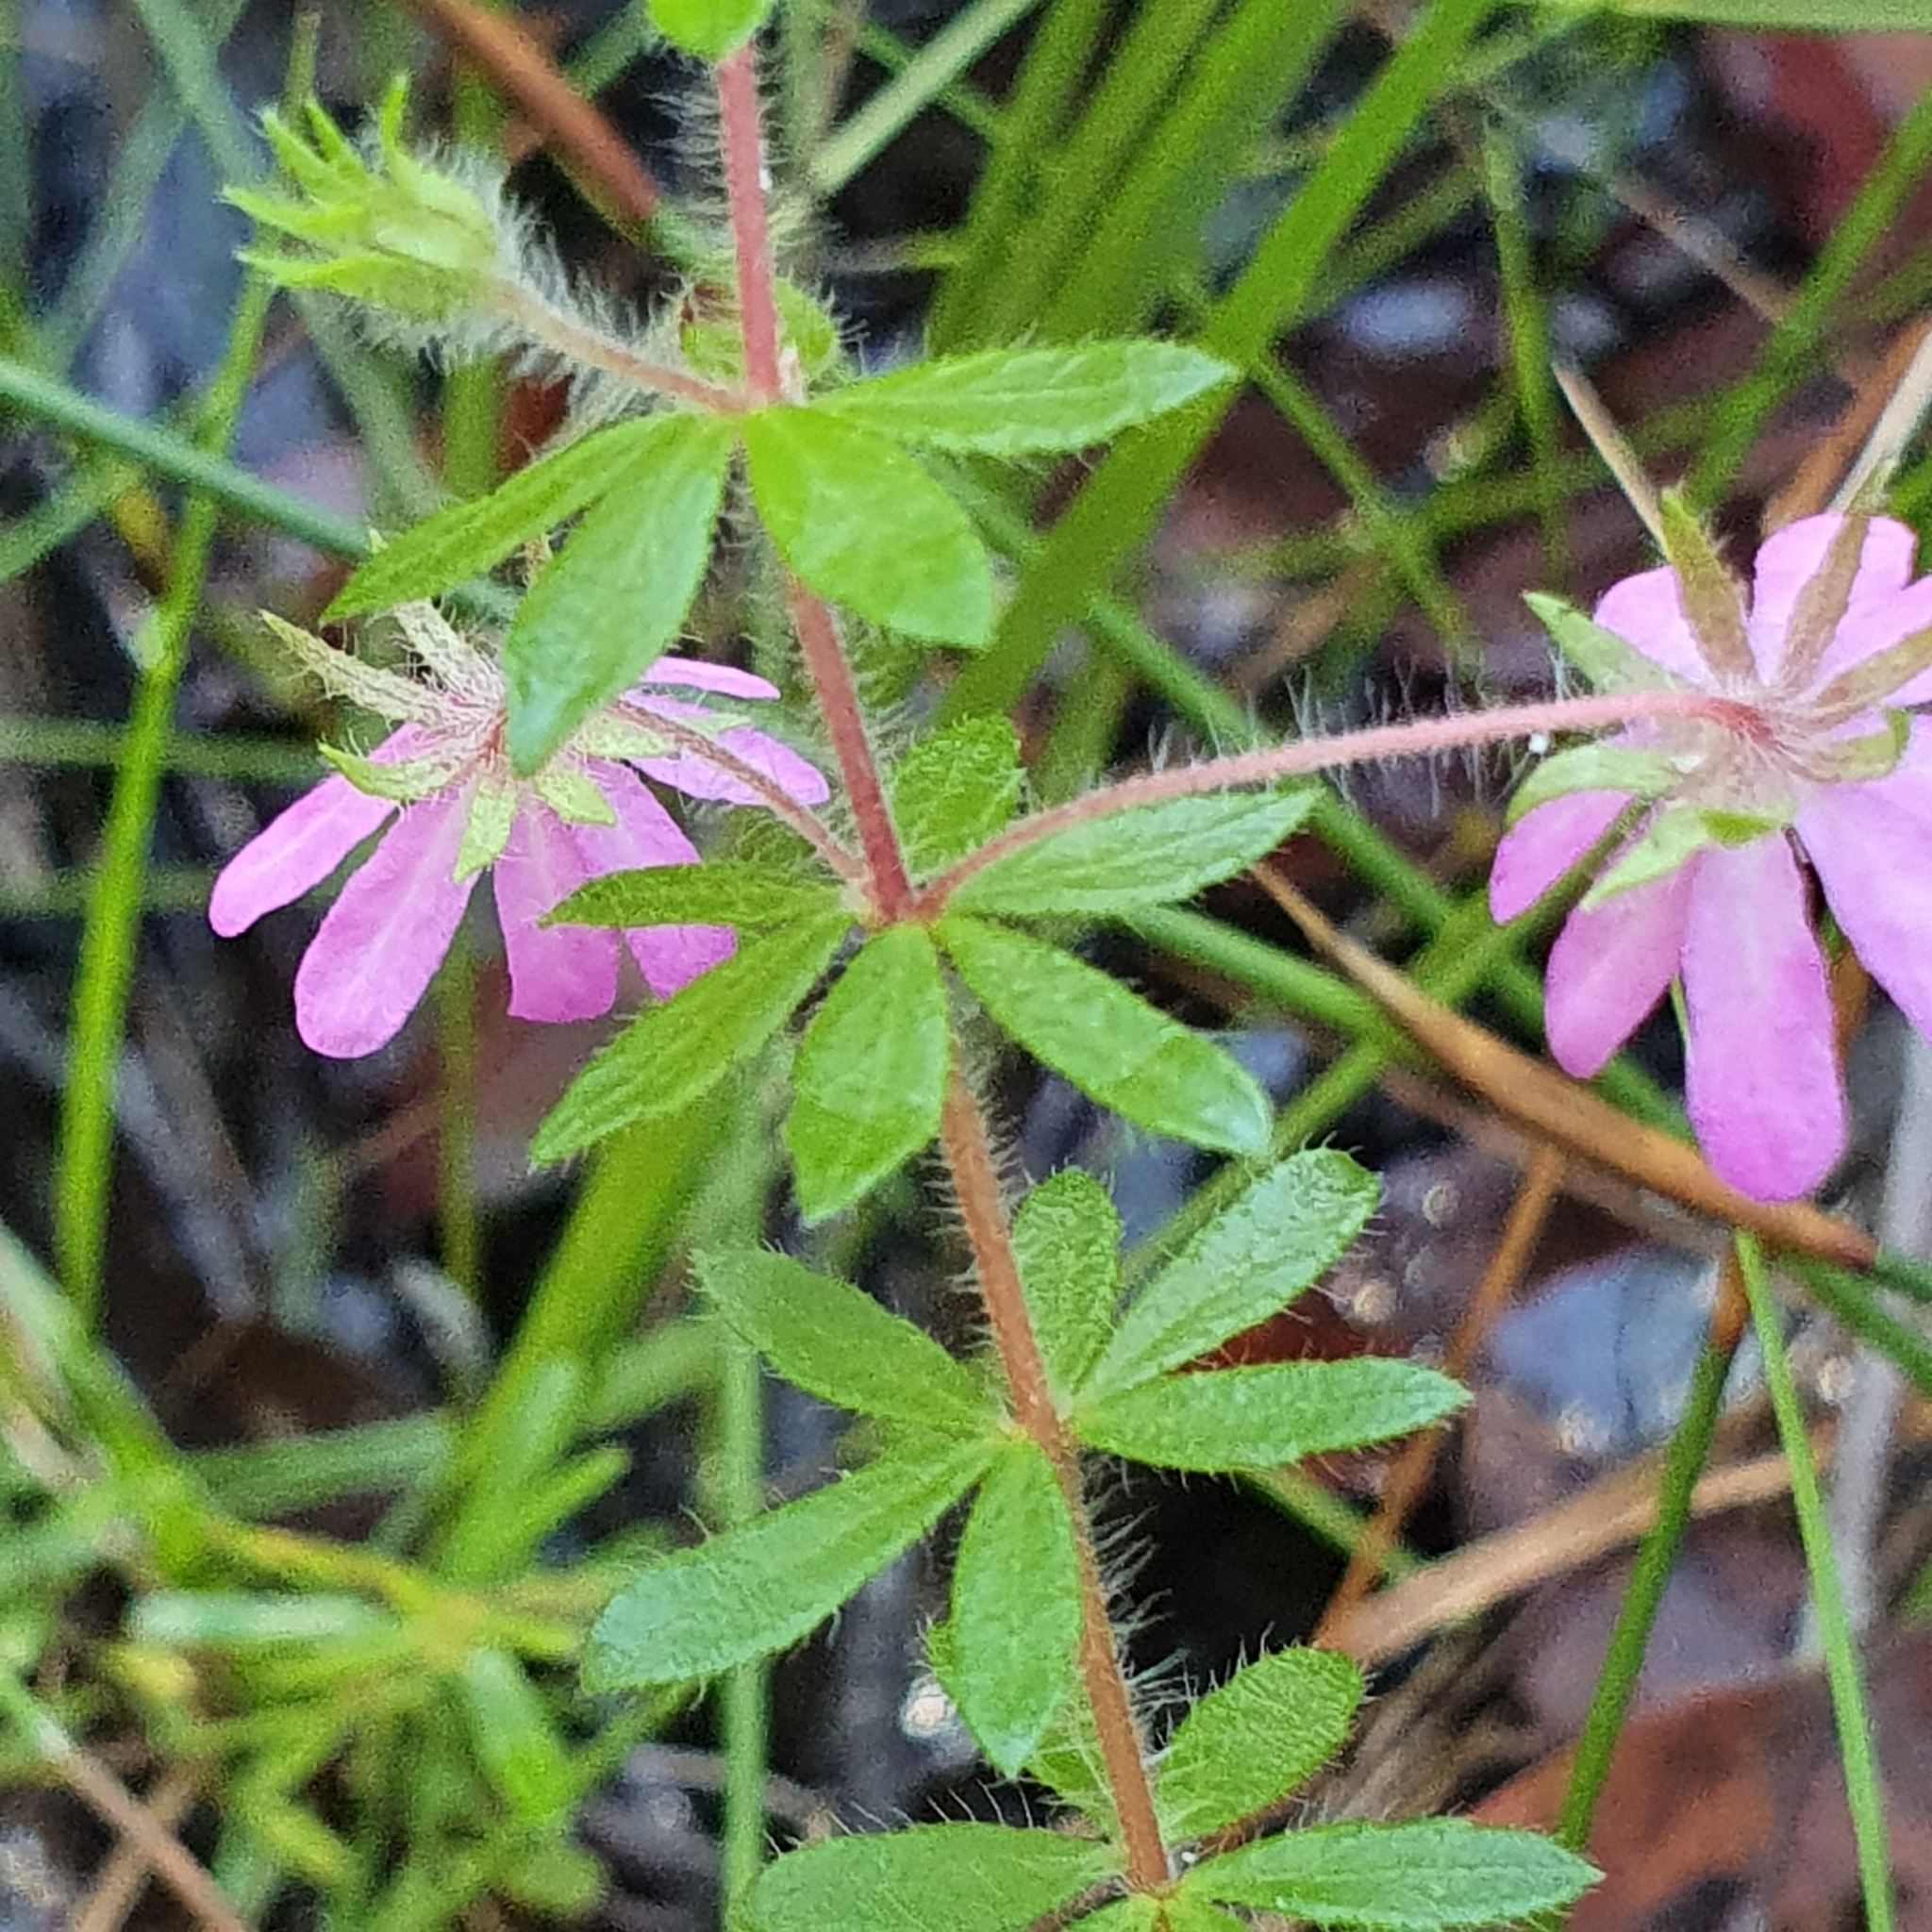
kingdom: Plantae
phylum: Tracheophyta
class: Magnoliopsida
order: Oxalidales
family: Cunoniaceae
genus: Bauera
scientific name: Bauera rubioides
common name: River-rose
